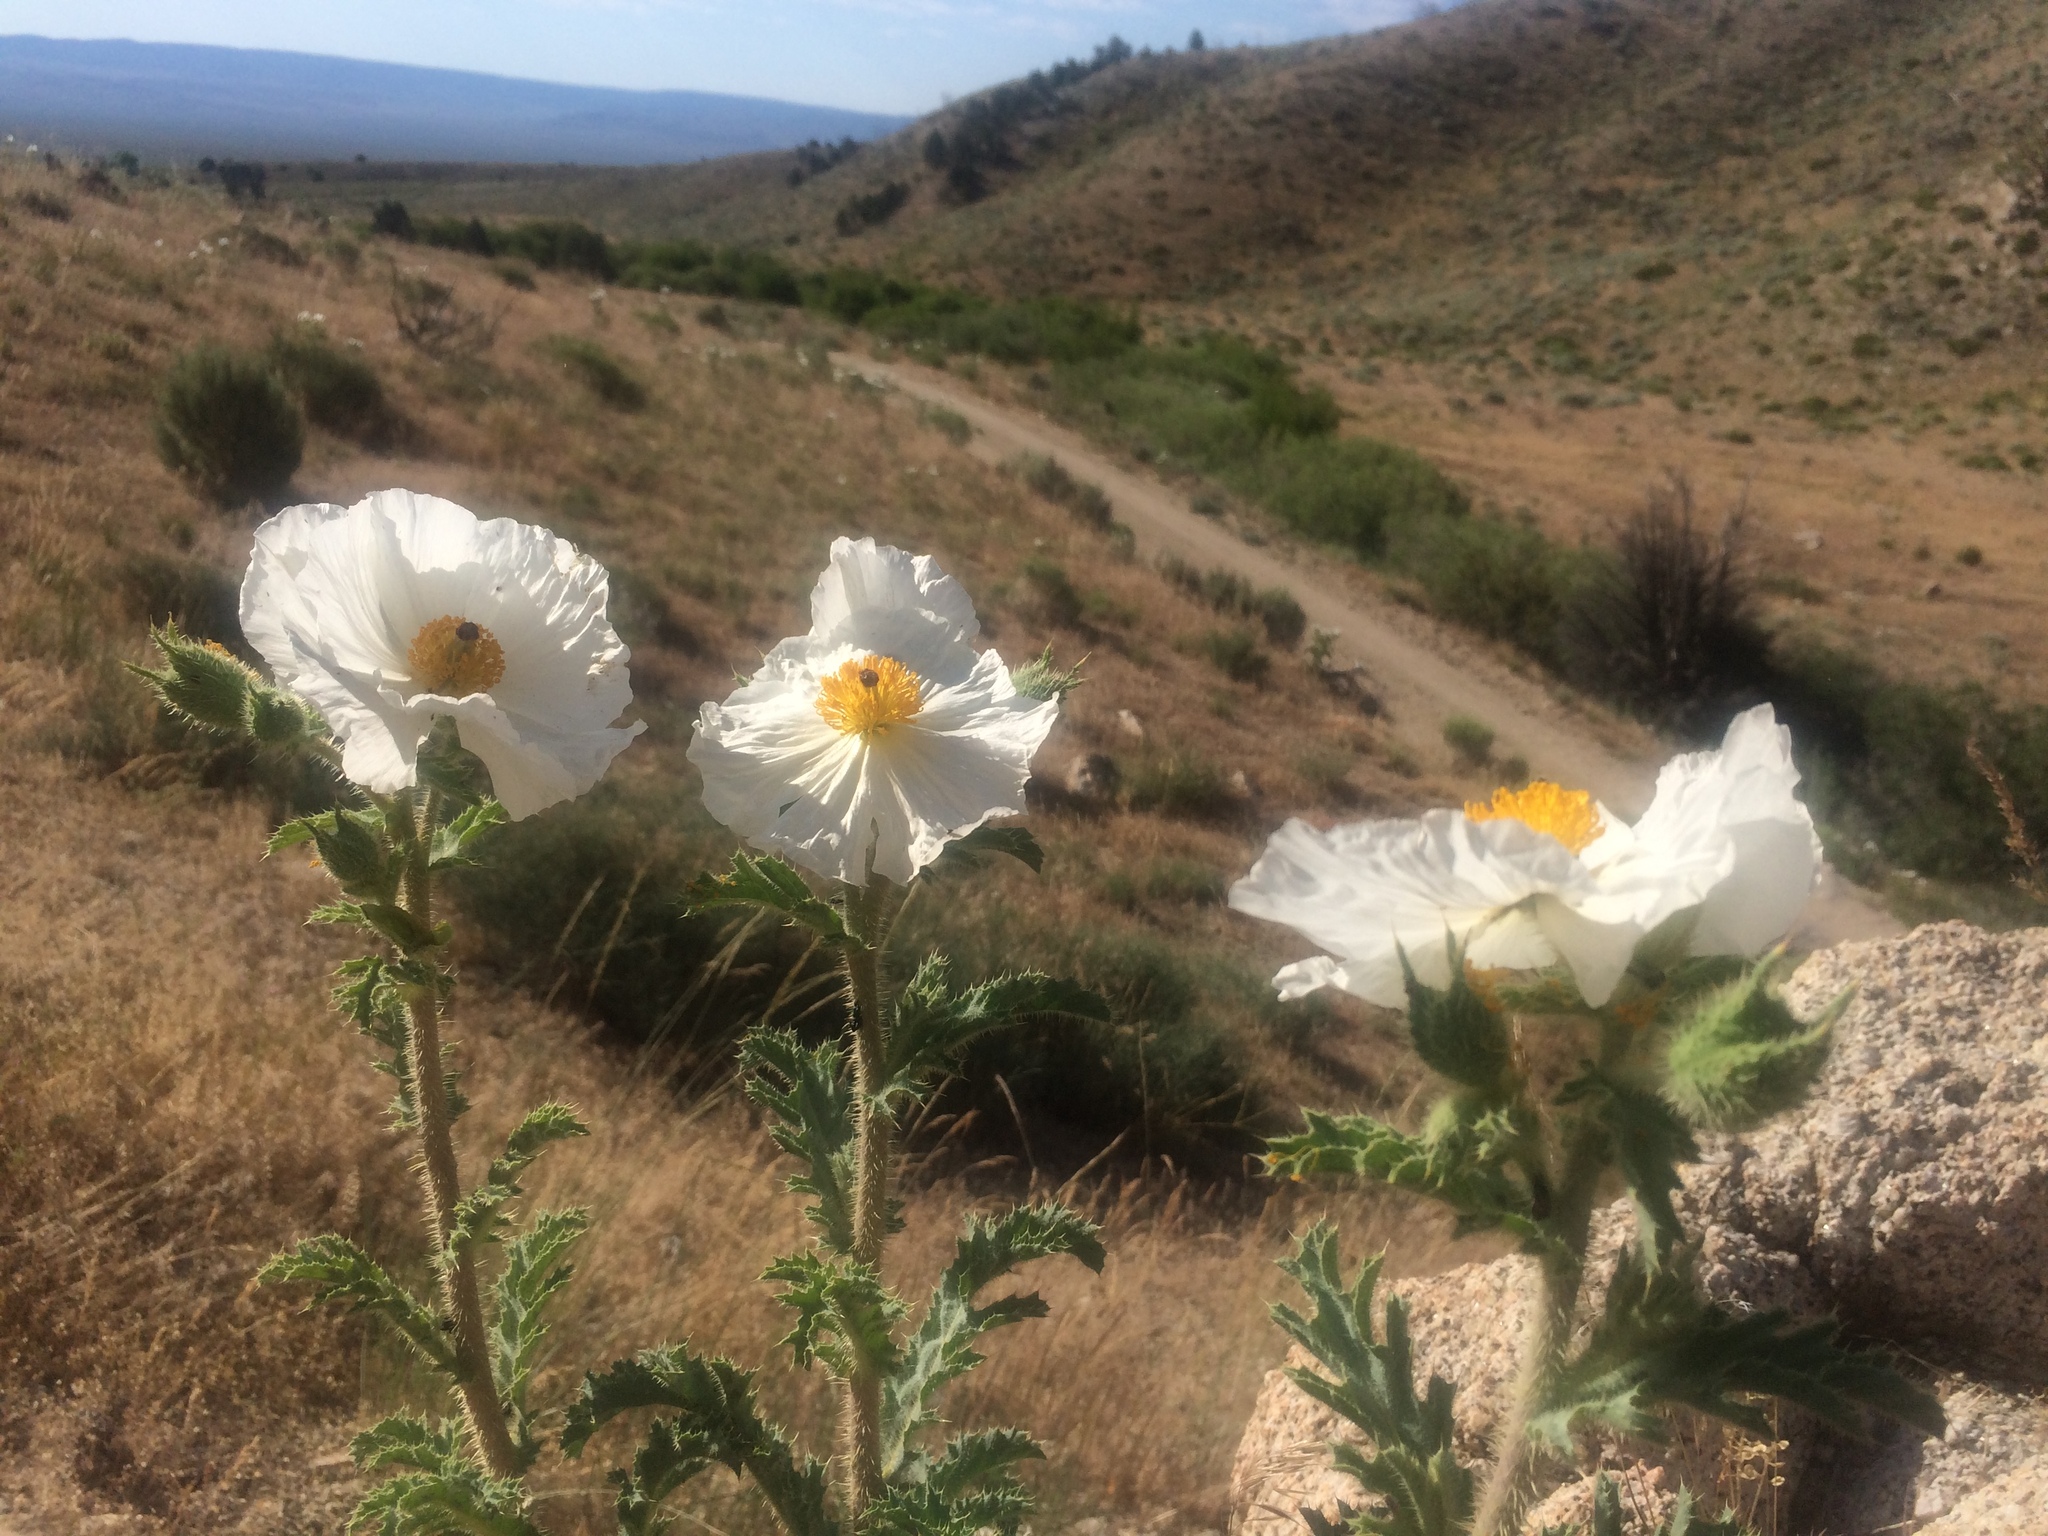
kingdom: Plantae
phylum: Tracheophyta
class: Magnoliopsida
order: Ranunculales
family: Papaveraceae
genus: Argemone
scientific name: Argemone munita
